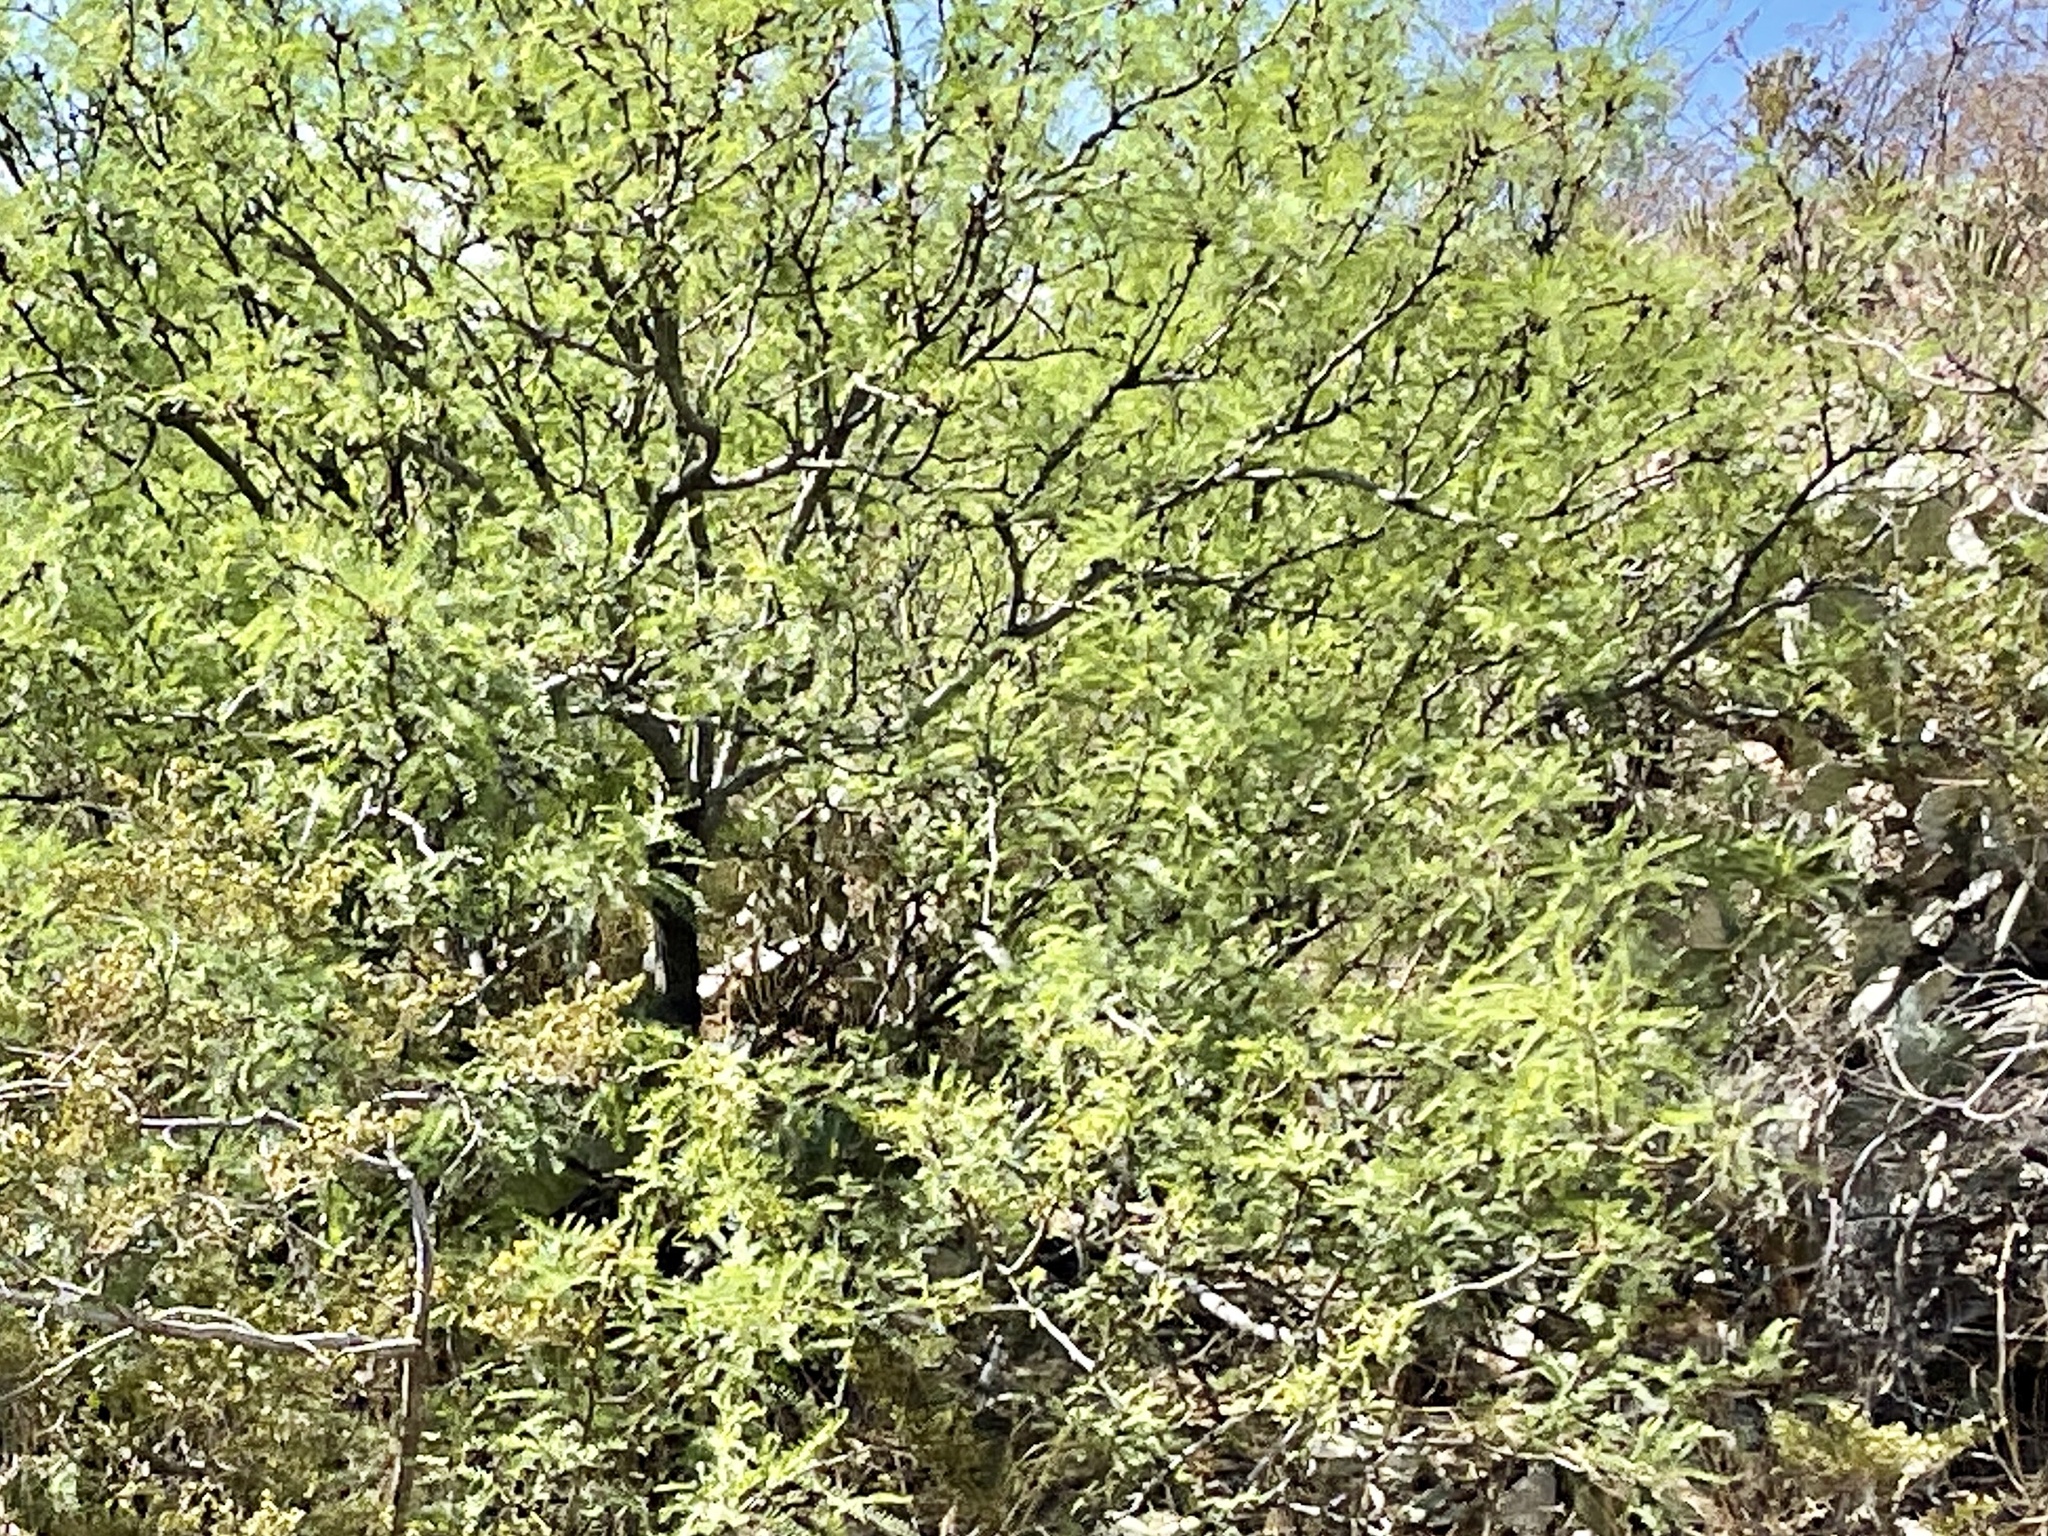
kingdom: Plantae
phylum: Tracheophyta
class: Magnoliopsida
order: Fabales
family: Fabaceae
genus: Prosopis
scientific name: Prosopis glandulosa
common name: Honey mesquite
